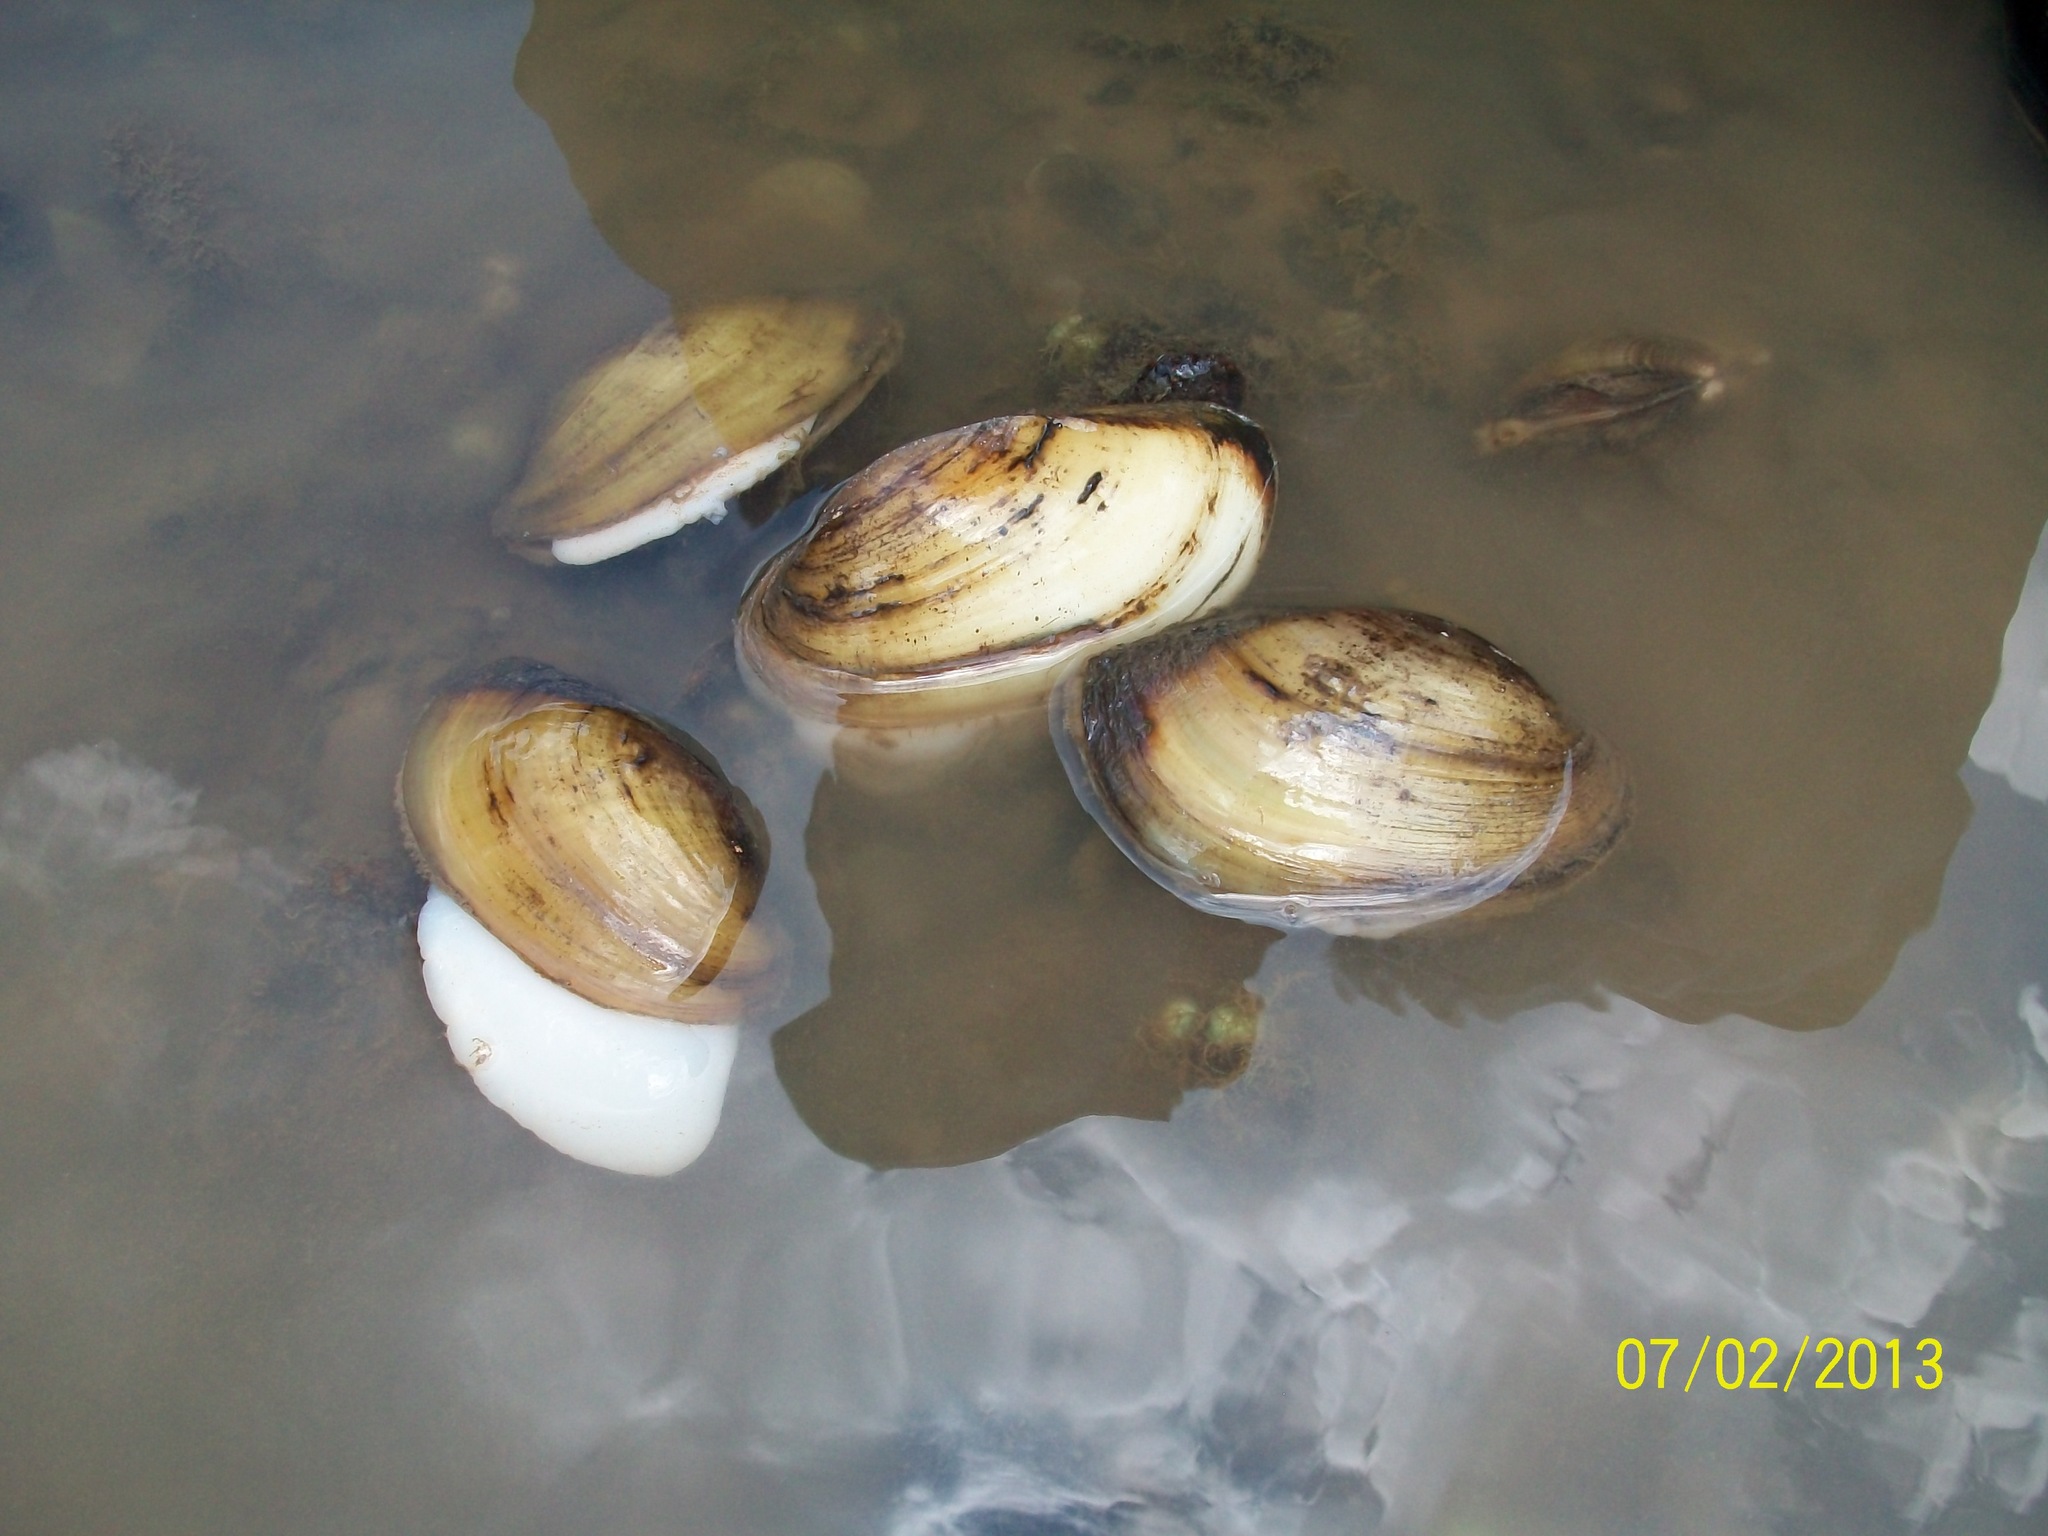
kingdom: Animalia
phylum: Mollusca
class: Bivalvia
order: Unionida
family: Unionidae
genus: Lampsilis
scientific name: Lampsilis teres
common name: Yellow sandshell
